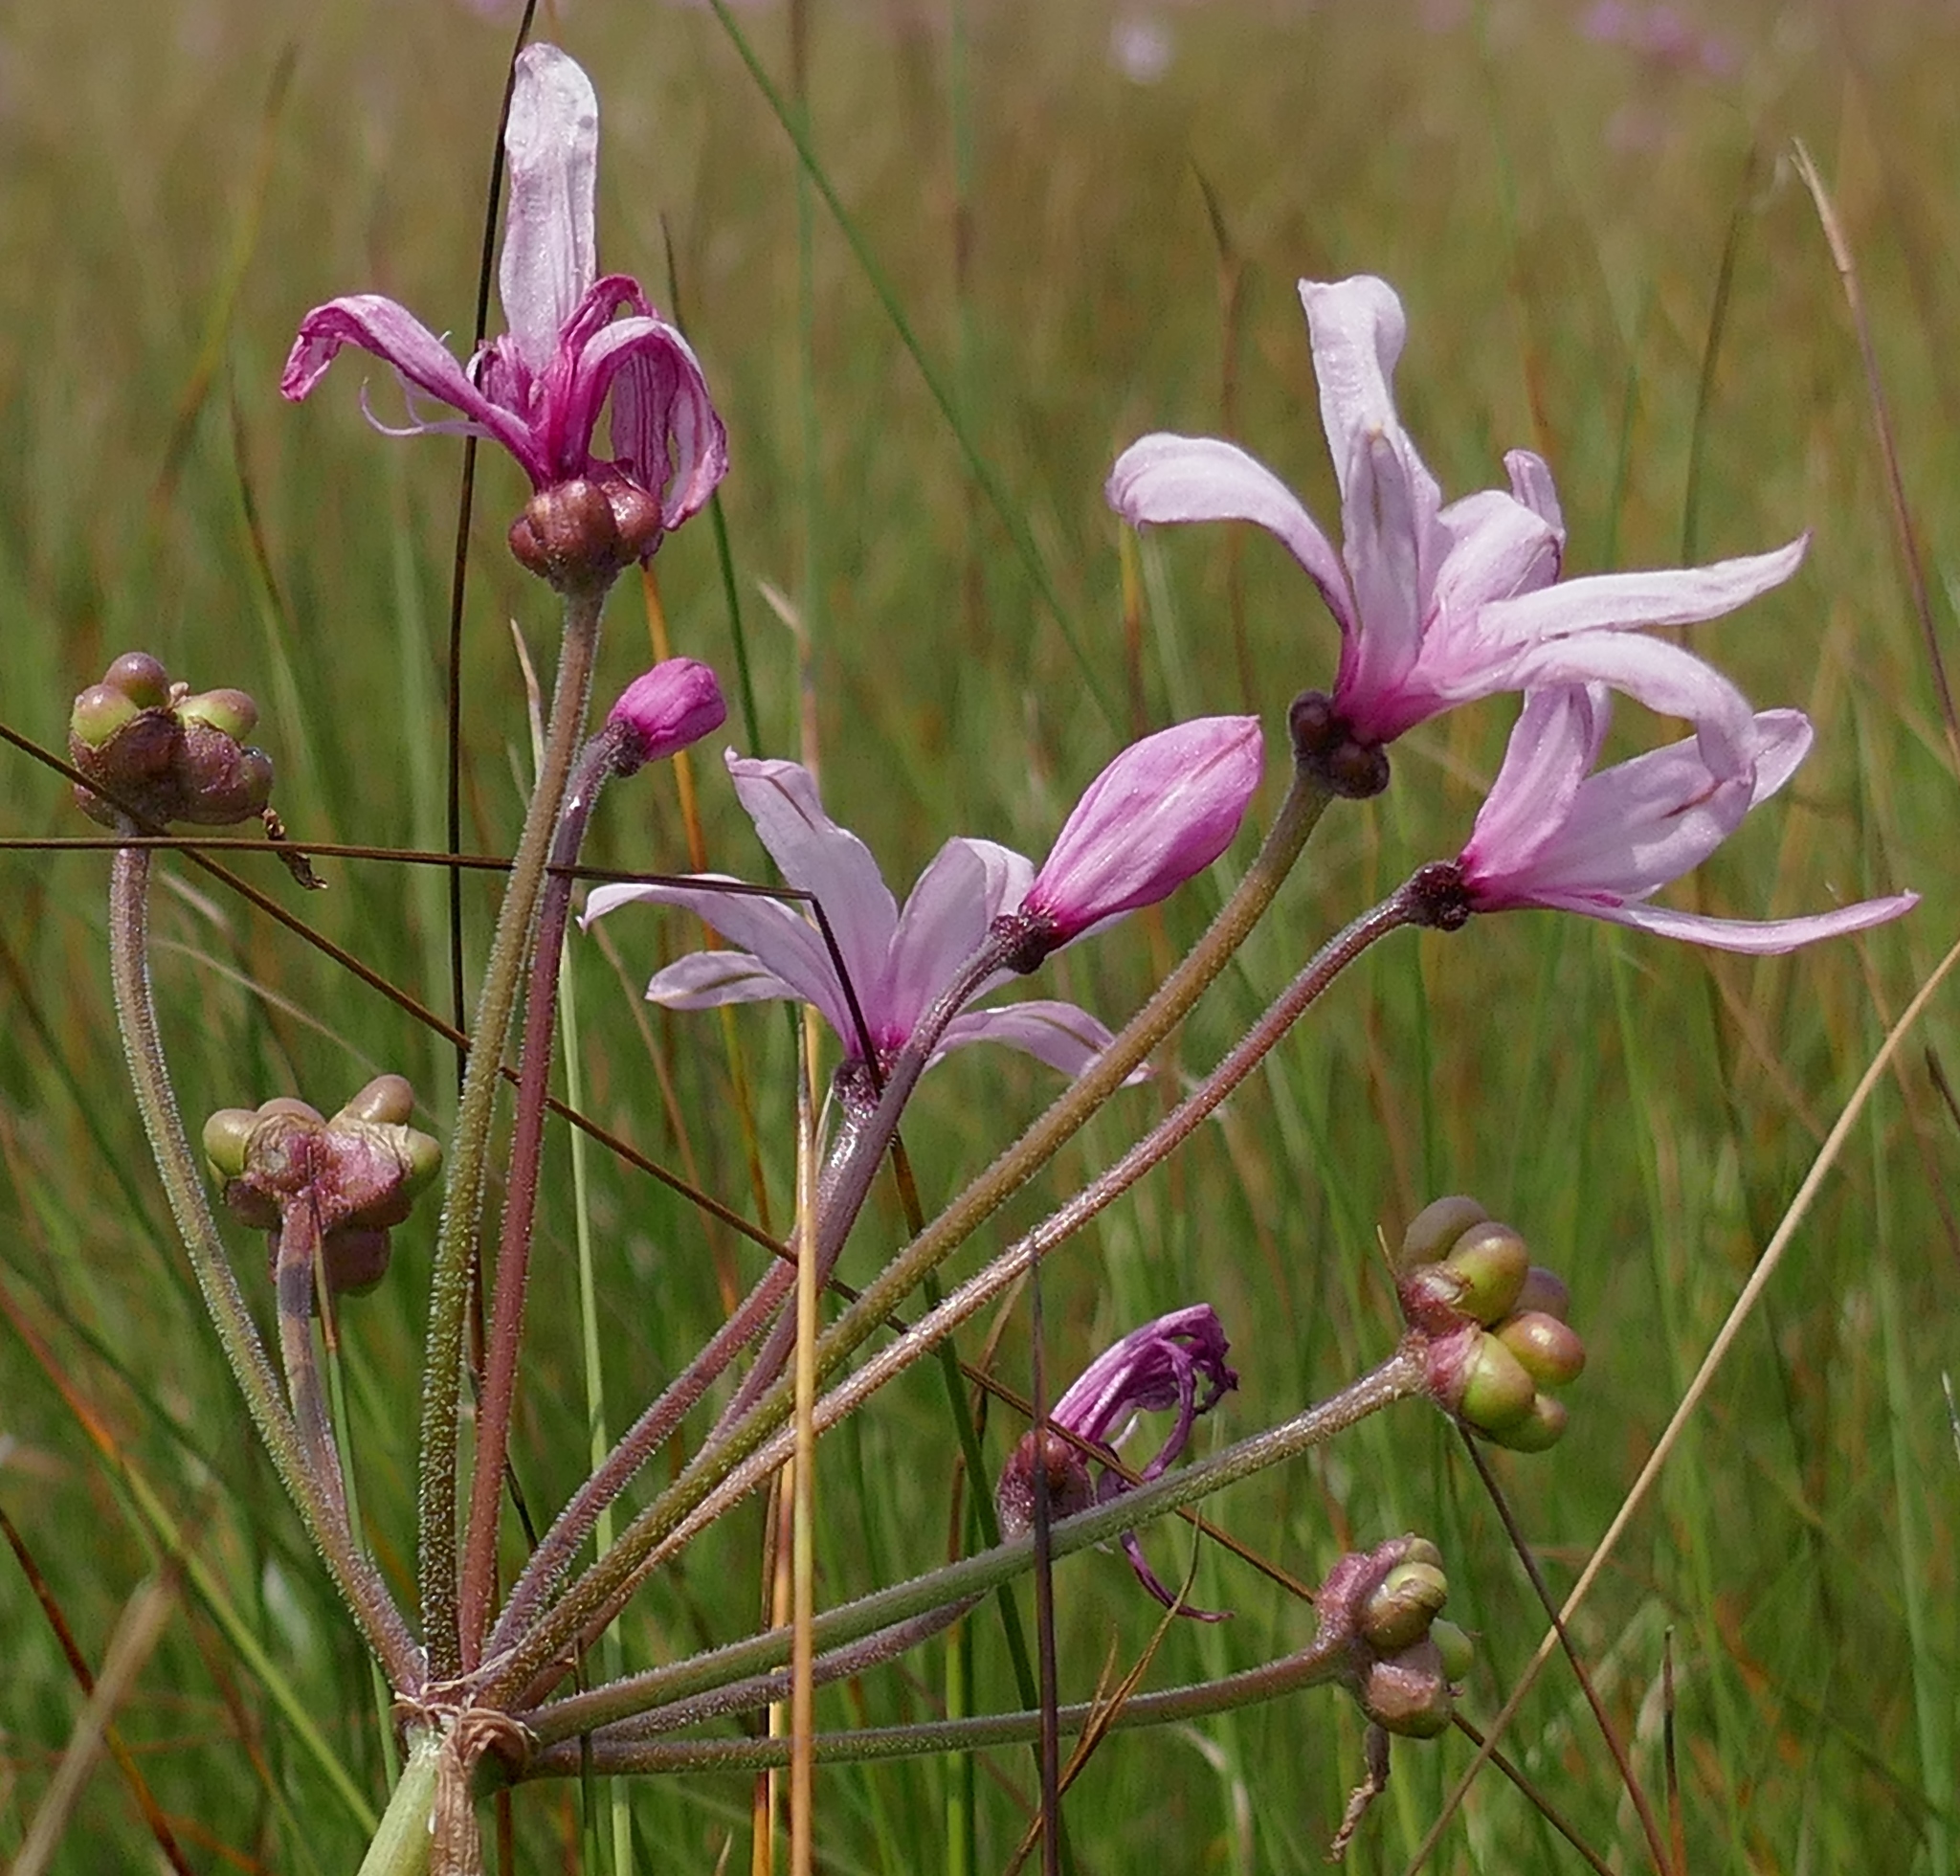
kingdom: Plantae
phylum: Tracheophyta
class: Liliopsida
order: Asparagales
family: Amaryllidaceae
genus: Nerine
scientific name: Nerine platypetala
